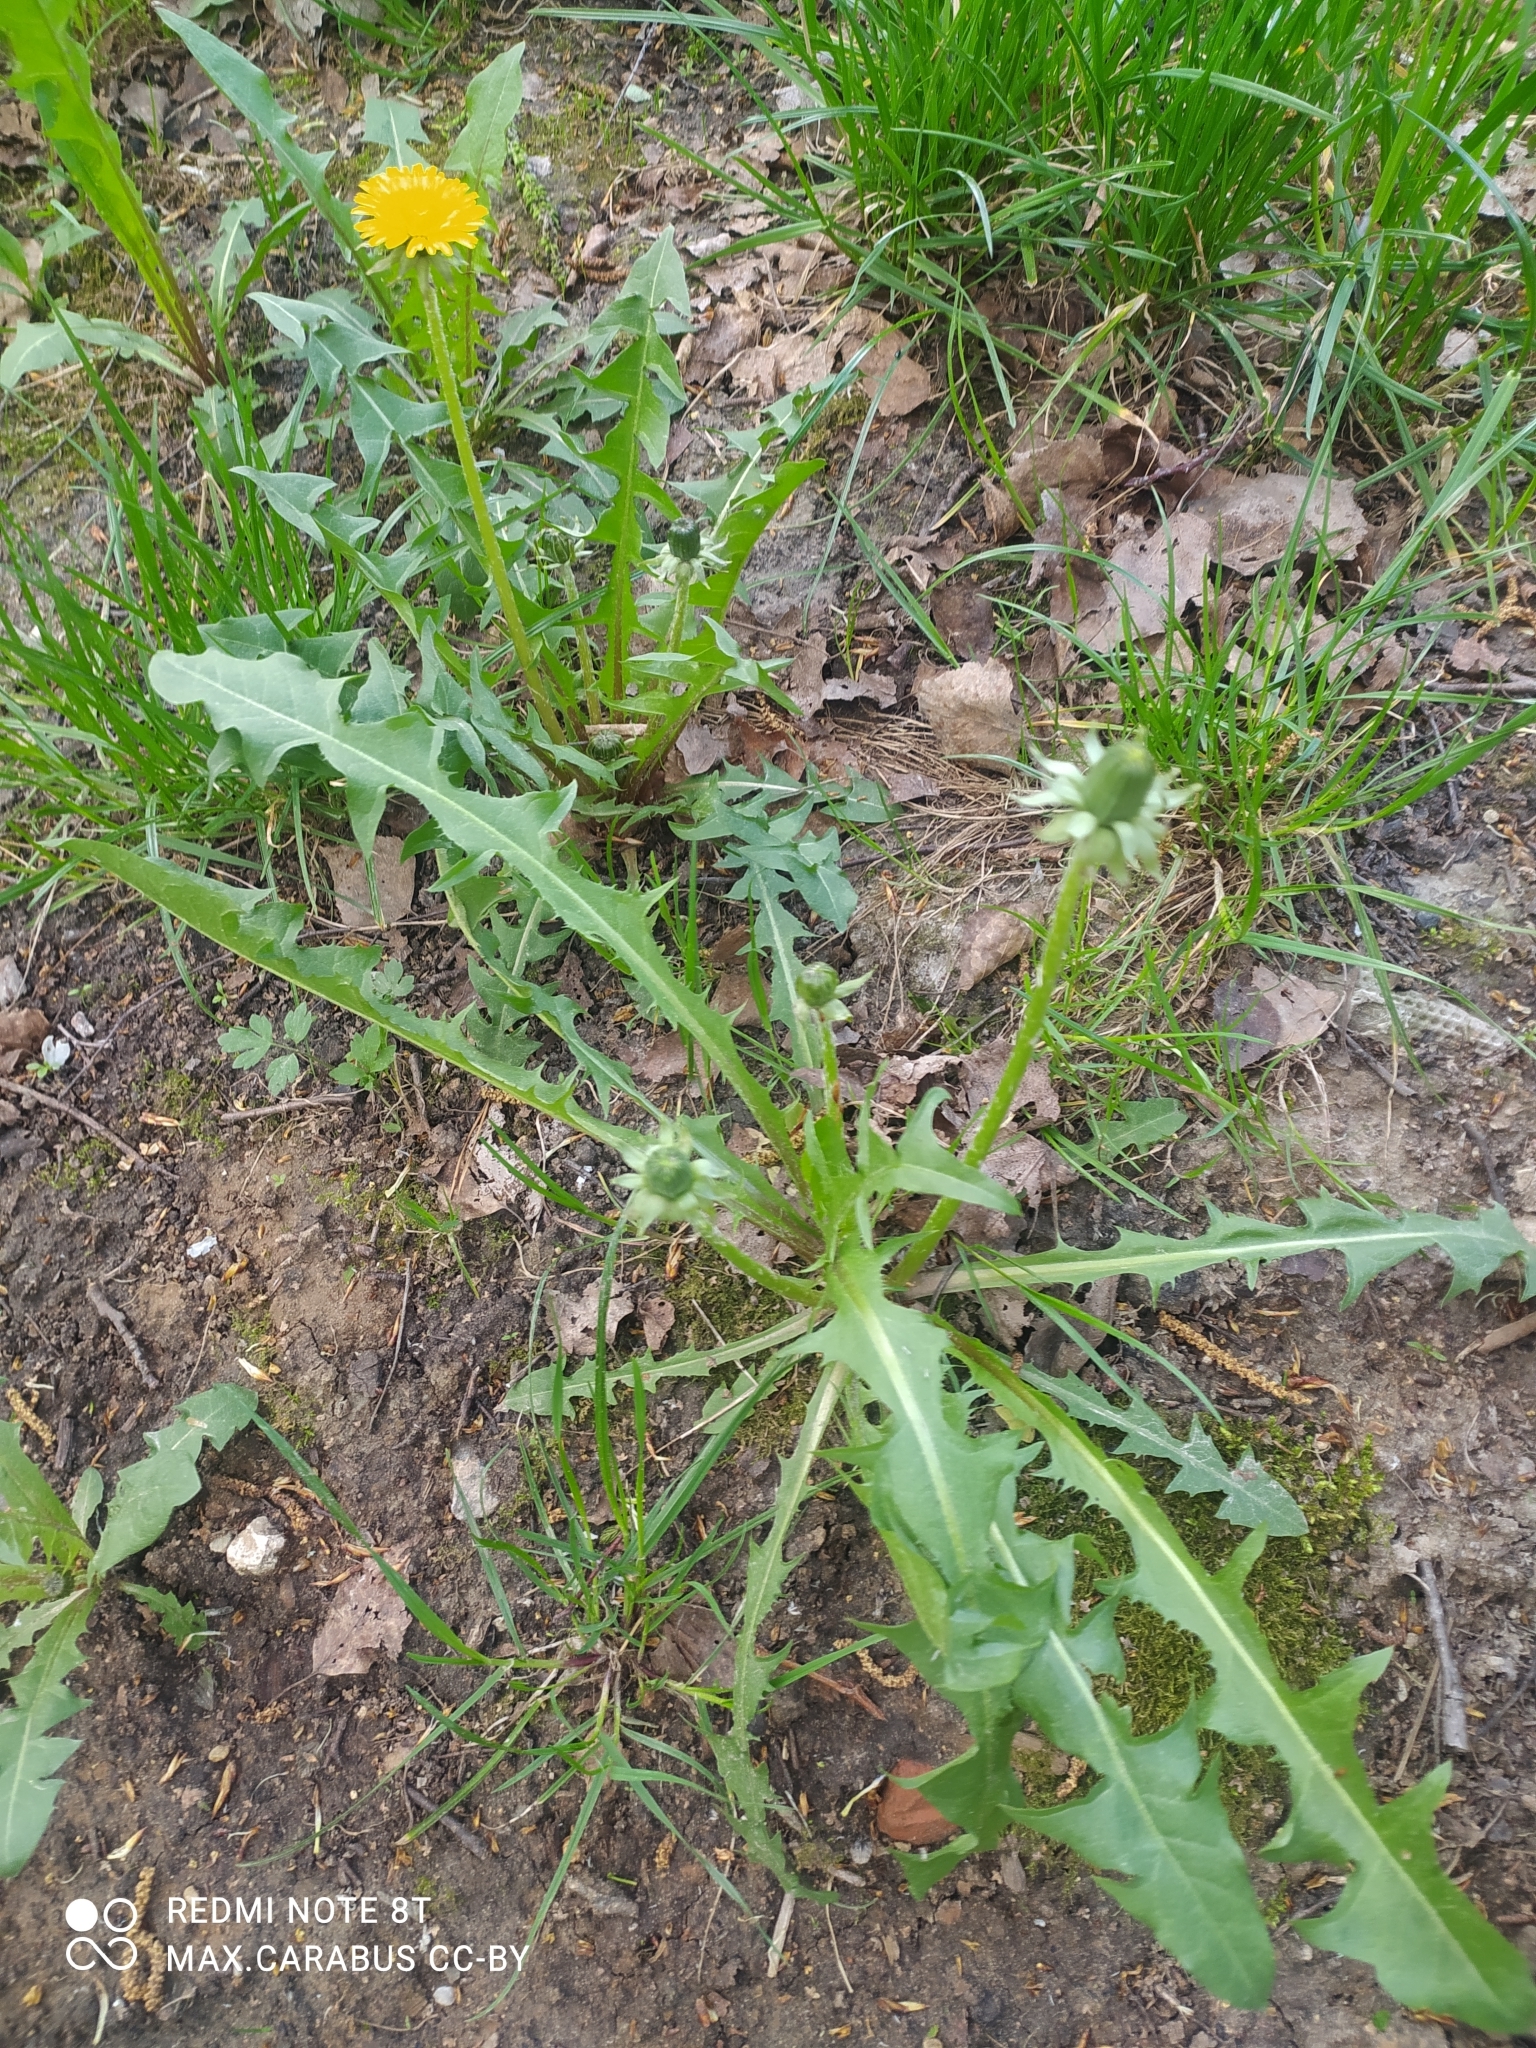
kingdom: Plantae
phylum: Tracheophyta
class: Magnoliopsida
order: Asterales
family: Asteraceae
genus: Taraxacum
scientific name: Taraxacum officinale
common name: Common dandelion
